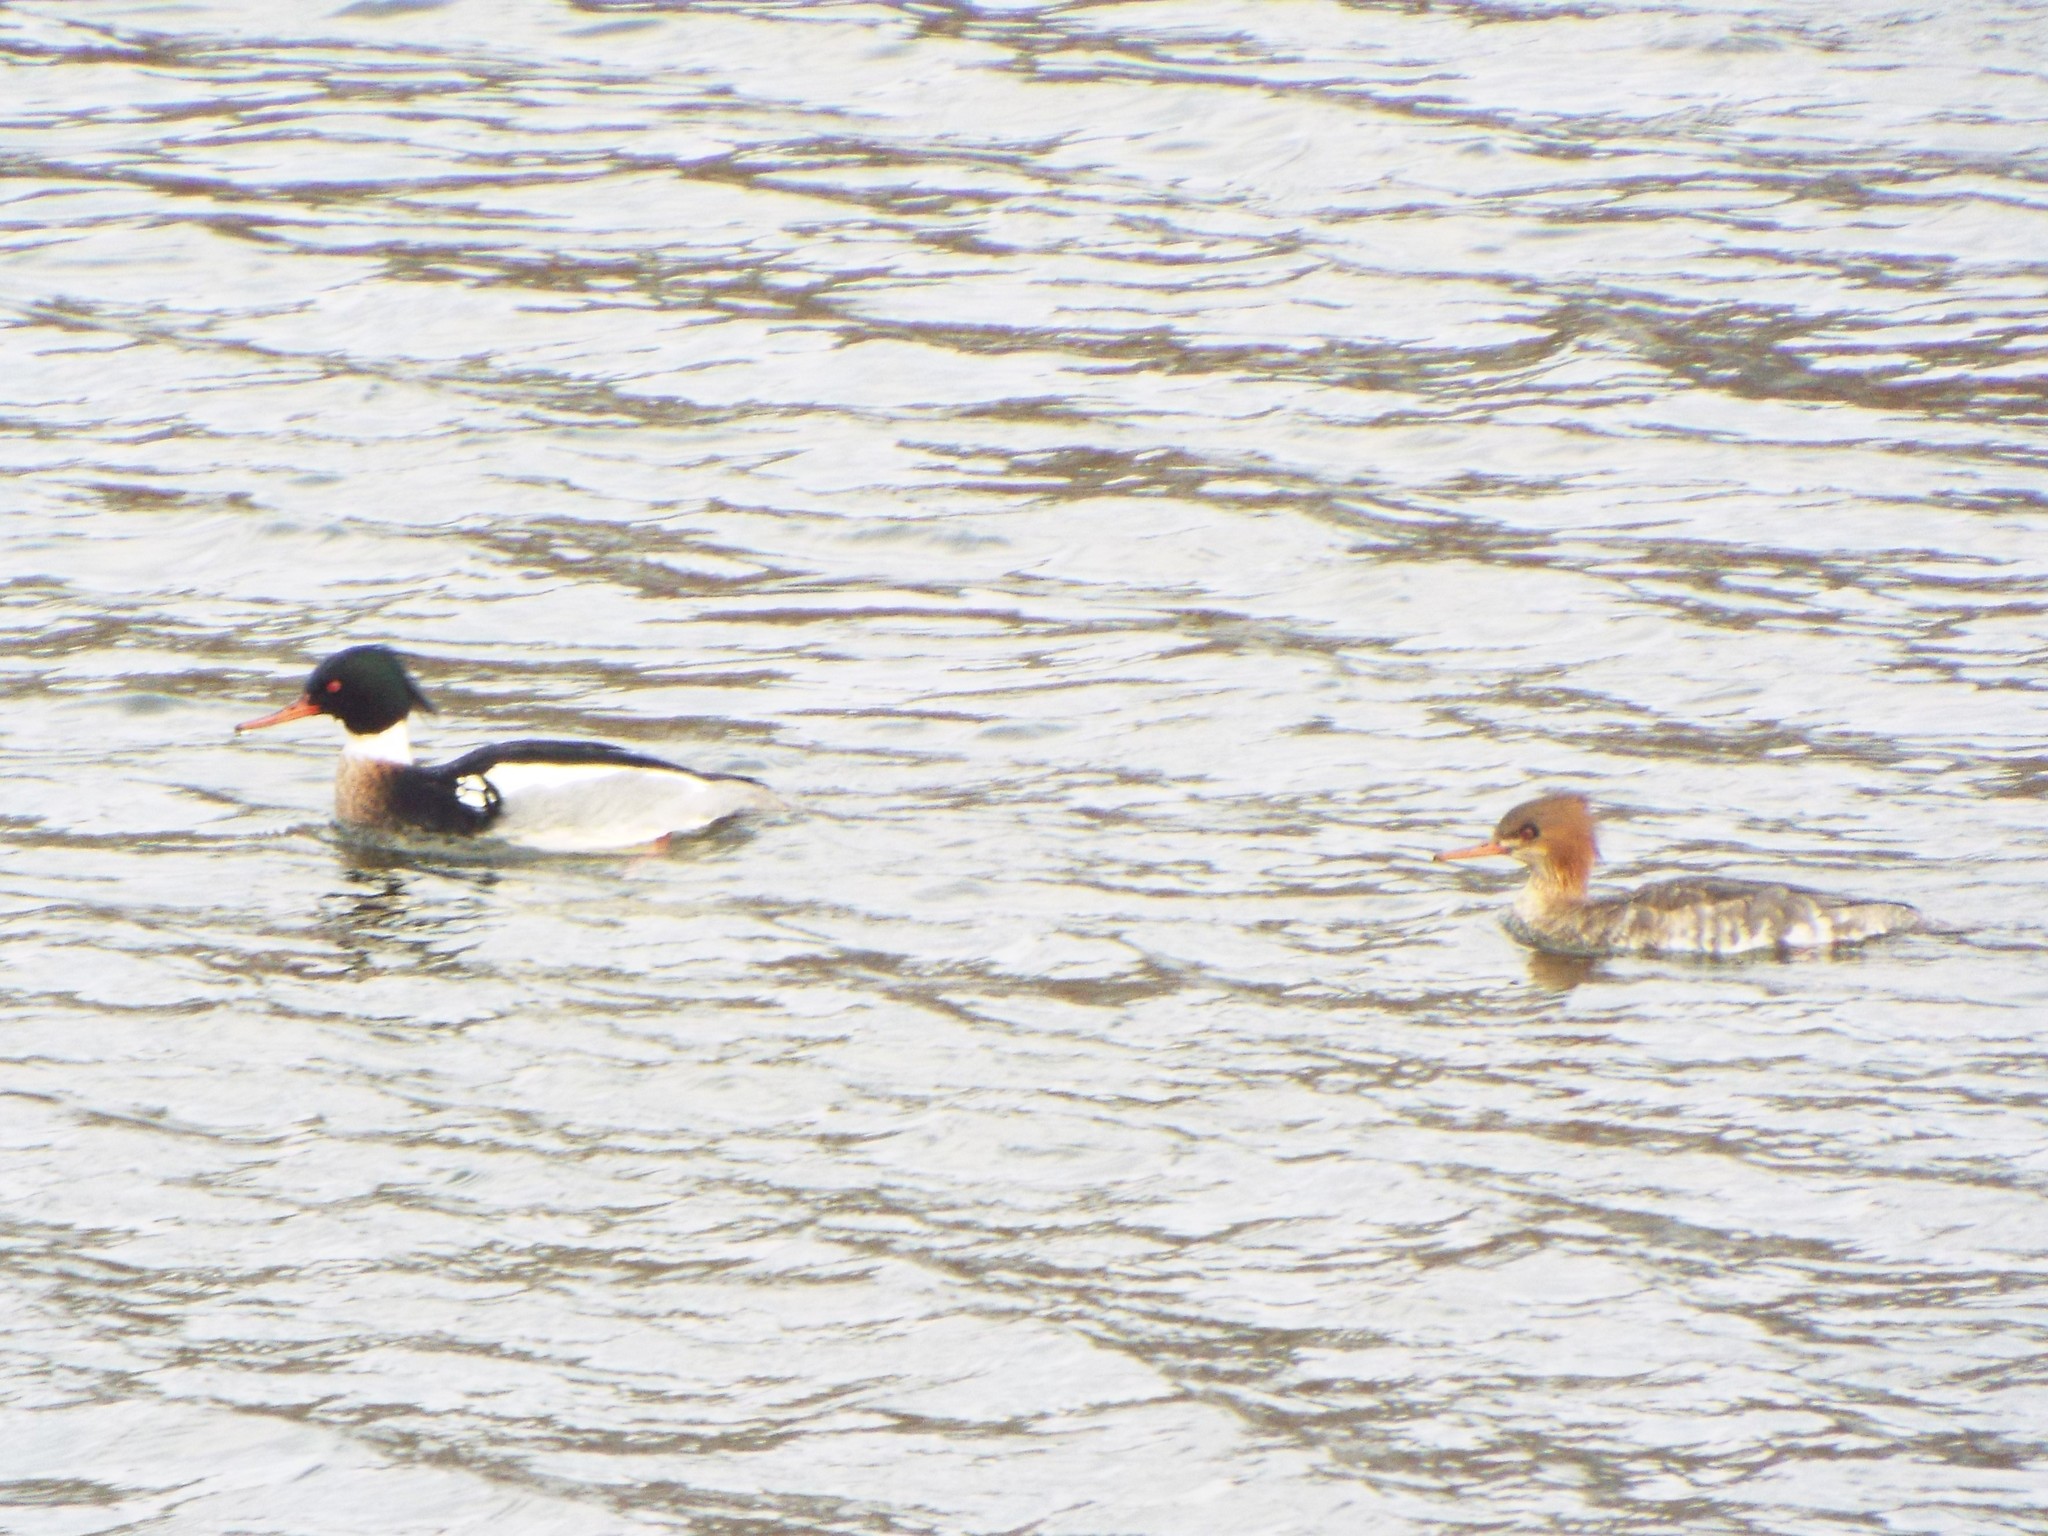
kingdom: Animalia
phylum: Chordata
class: Aves
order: Anseriformes
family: Anatidae
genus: Mergus
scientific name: Mergus serrator
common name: Red-breasted merganser
